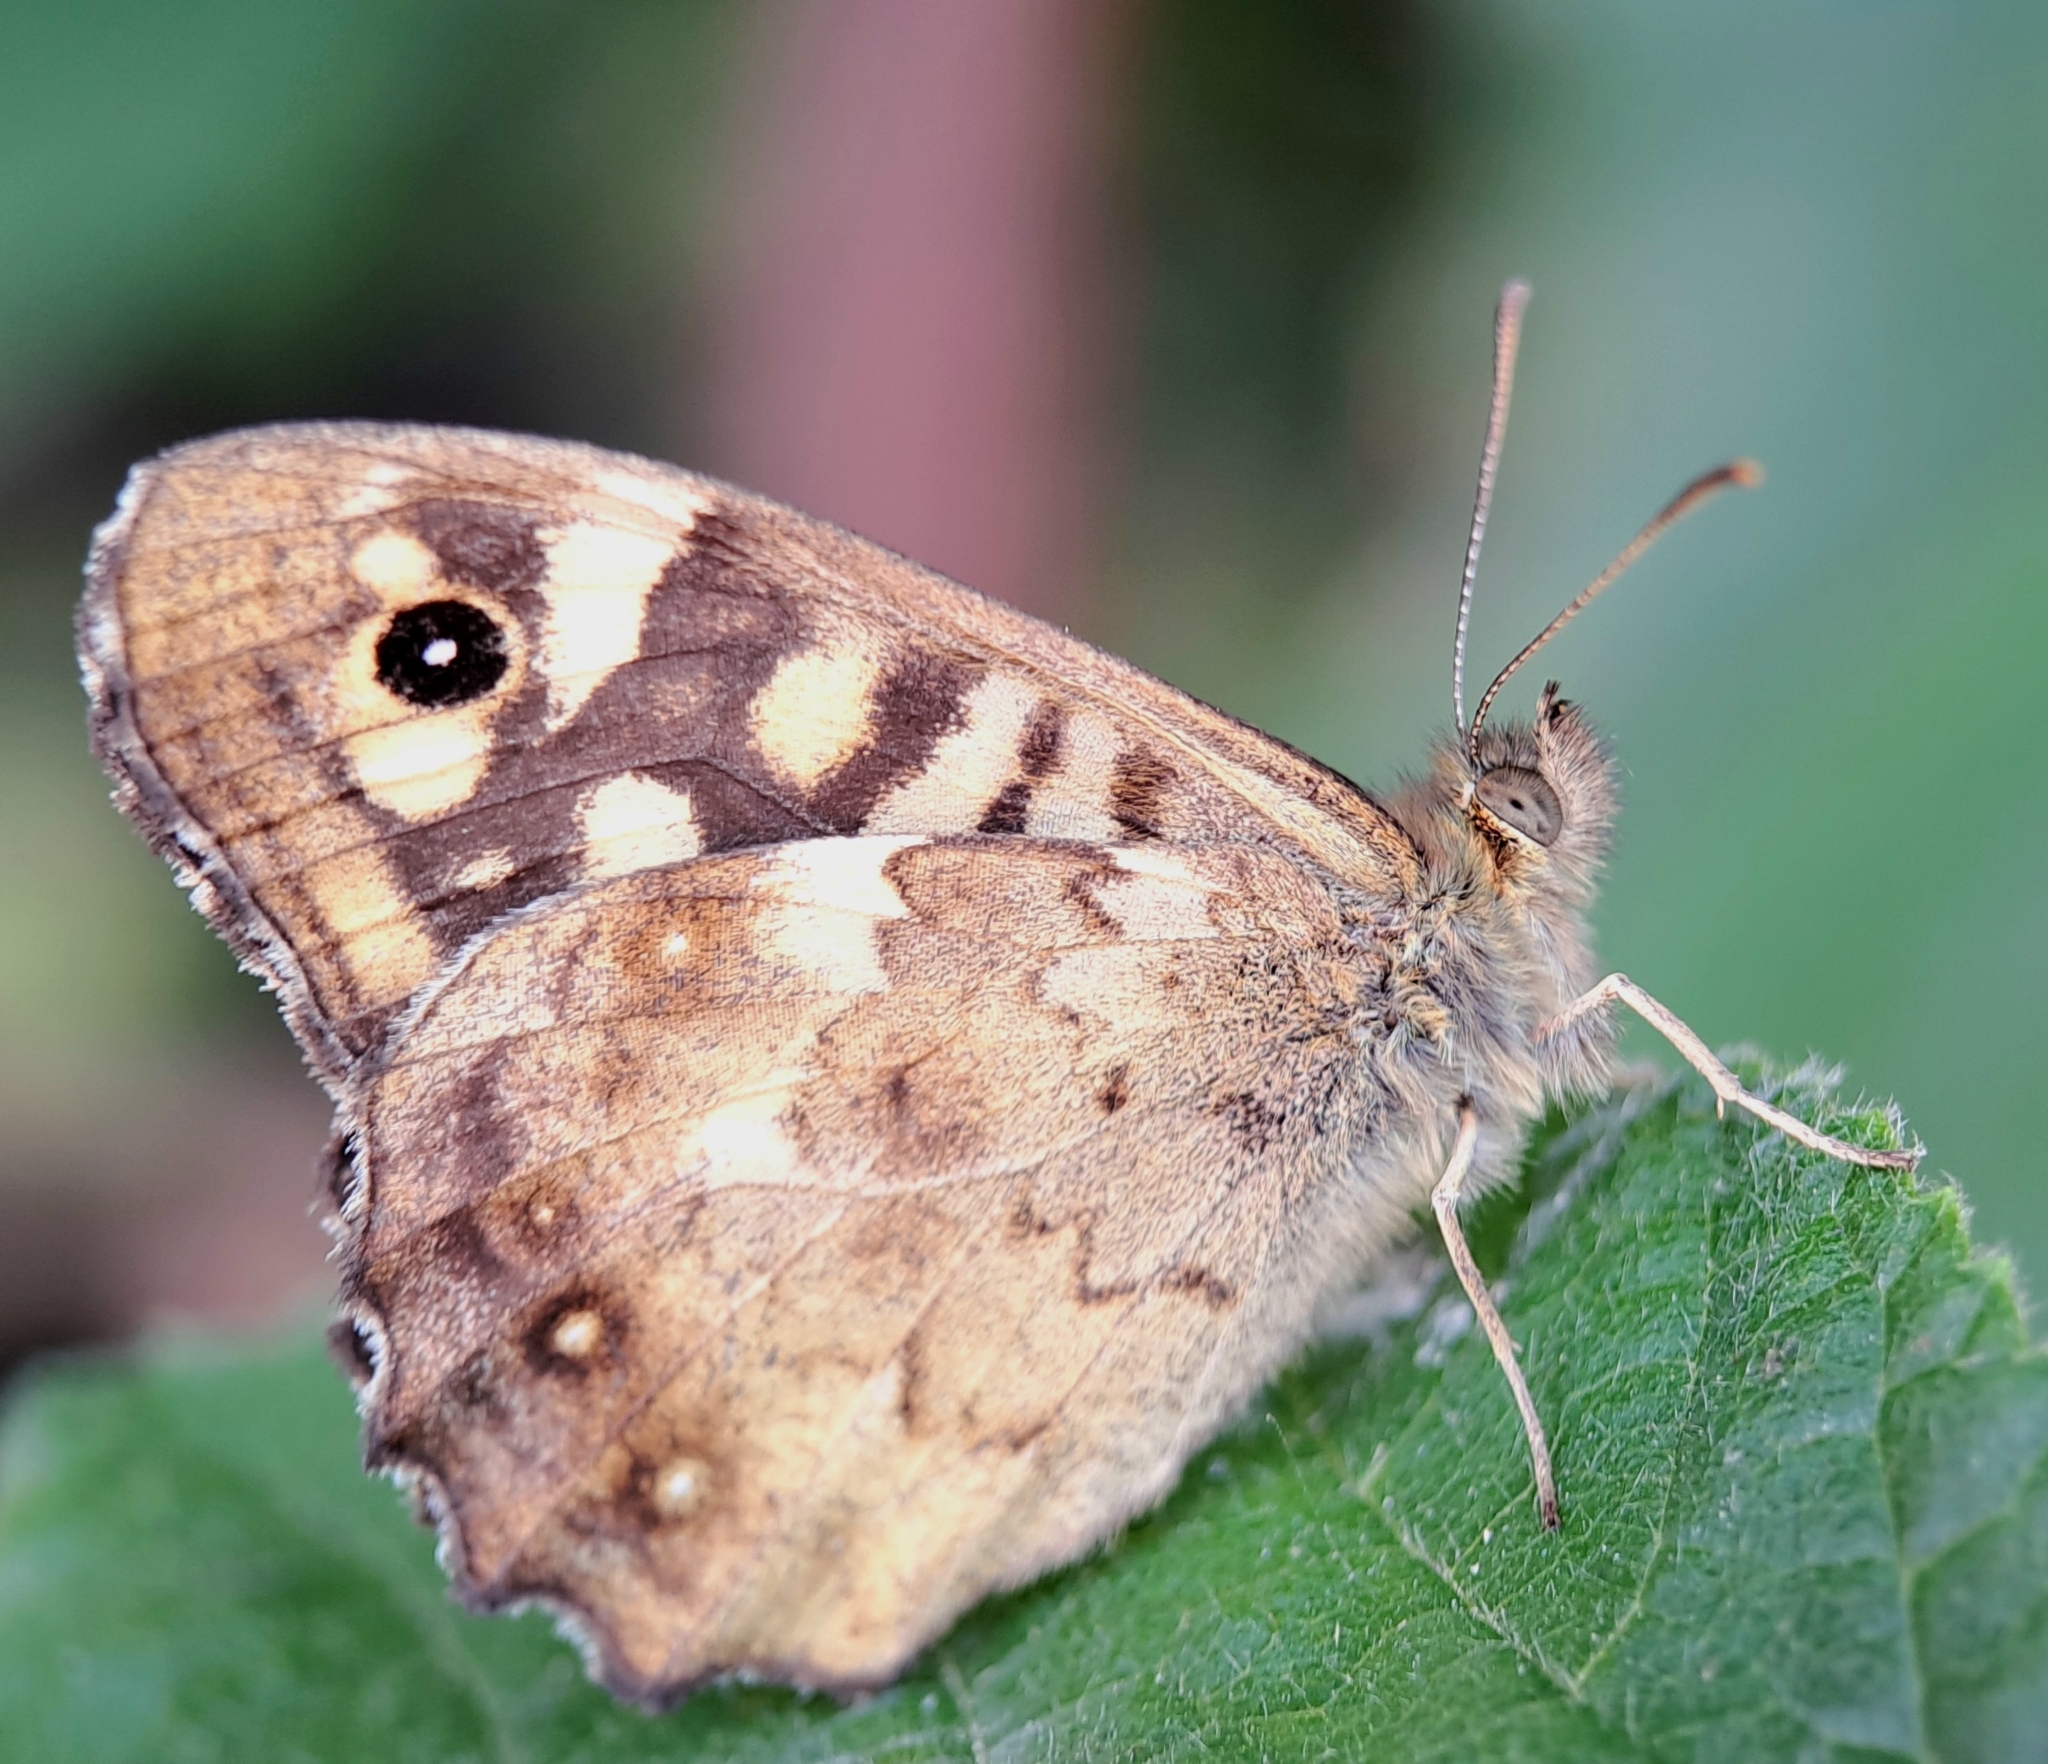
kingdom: Animalia
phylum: Arthropoda
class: Insecta
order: Lepidoptera
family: Nymphalidae
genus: Pararge
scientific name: Pararge aegeria
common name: Speckled wood
